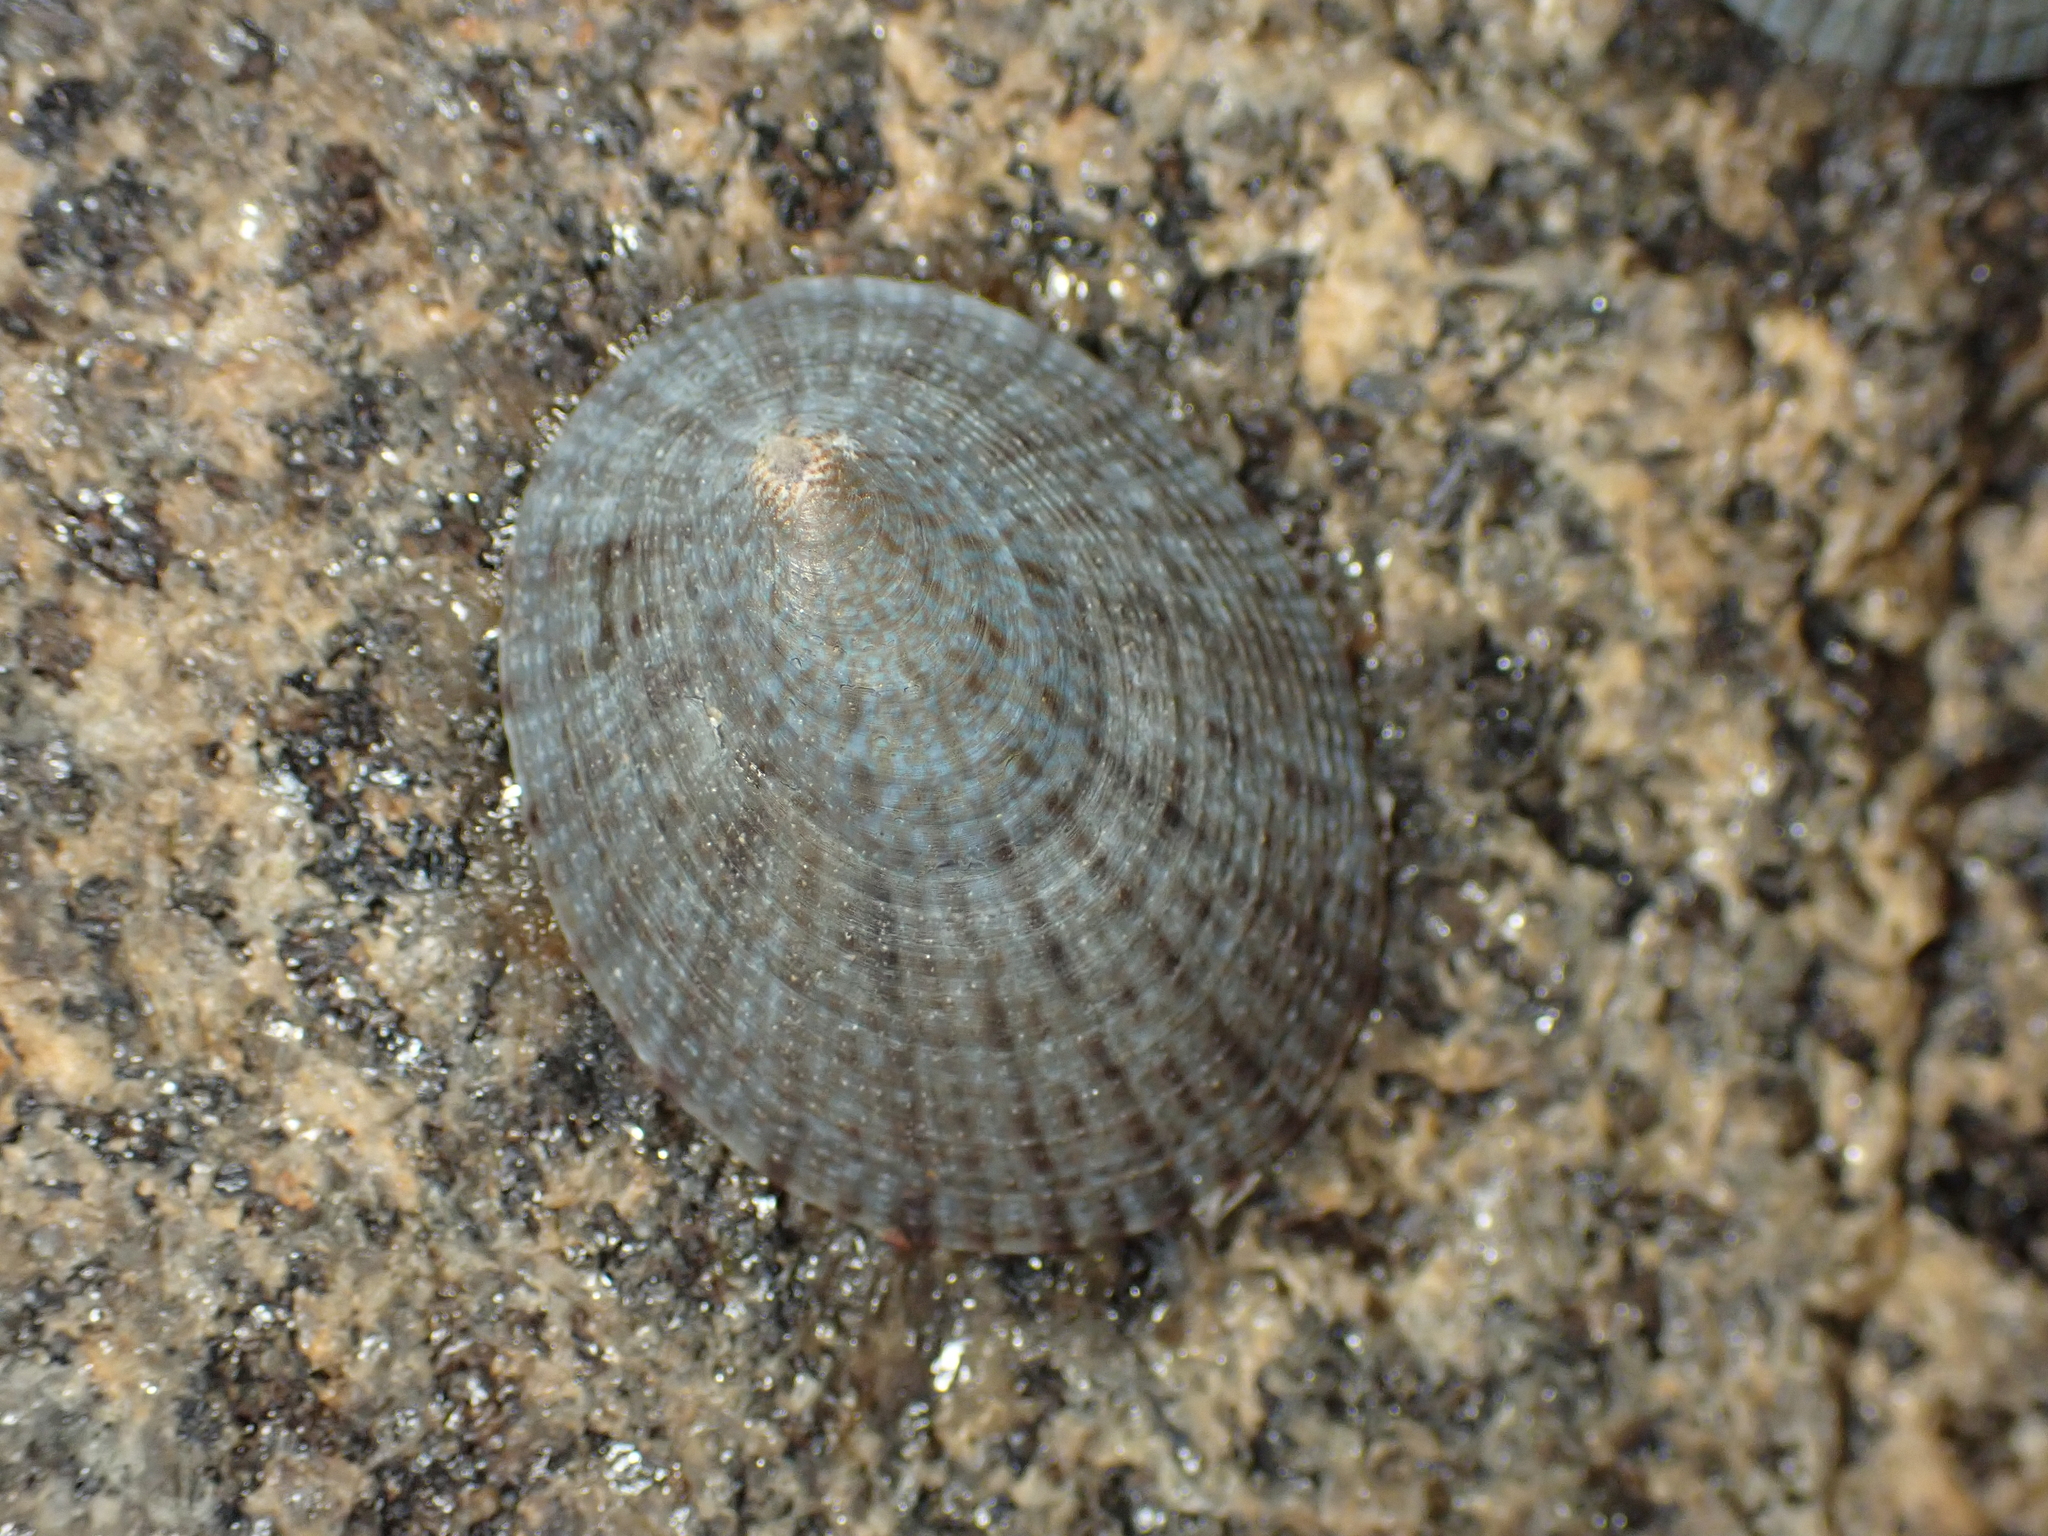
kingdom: Animalia
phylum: Mollusca
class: Gastropoda
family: Nacellidae
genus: Cellana
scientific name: Cellana radians
